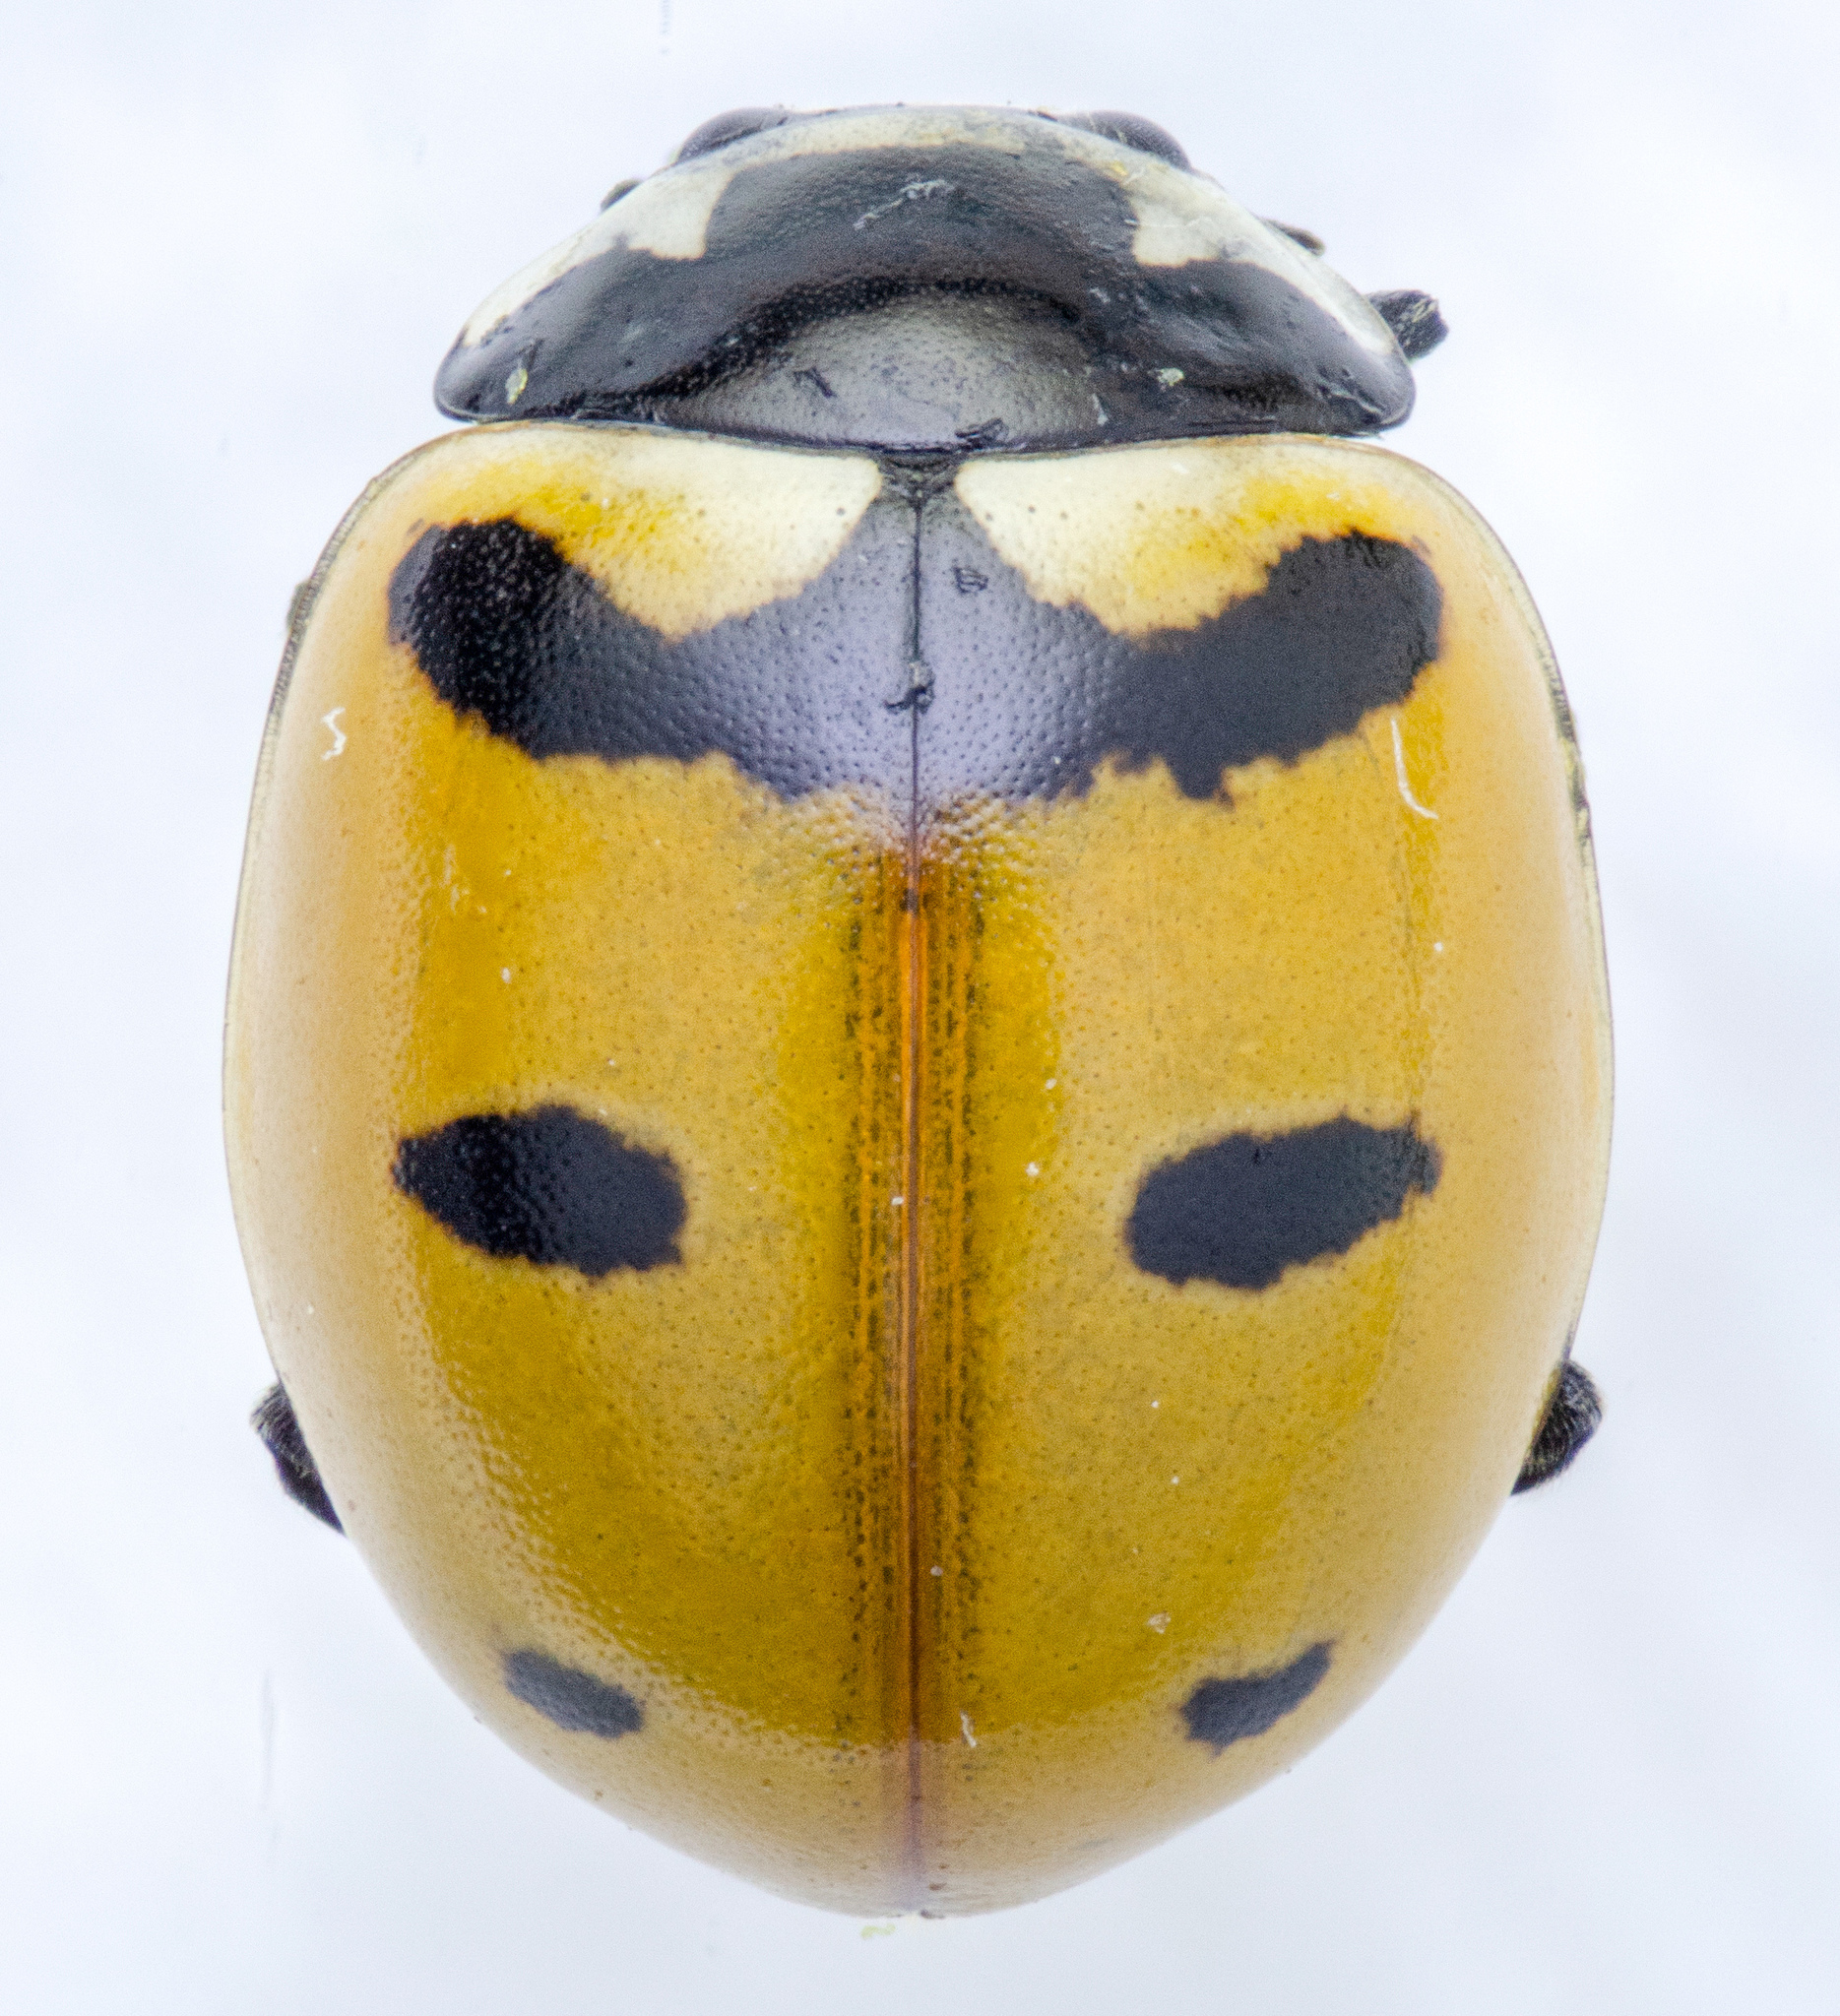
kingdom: Animalia
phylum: Arthropoda
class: Insecta
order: Coleoptera
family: Coccinellidae
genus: Coccinella
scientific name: Coccinella trifasciata
